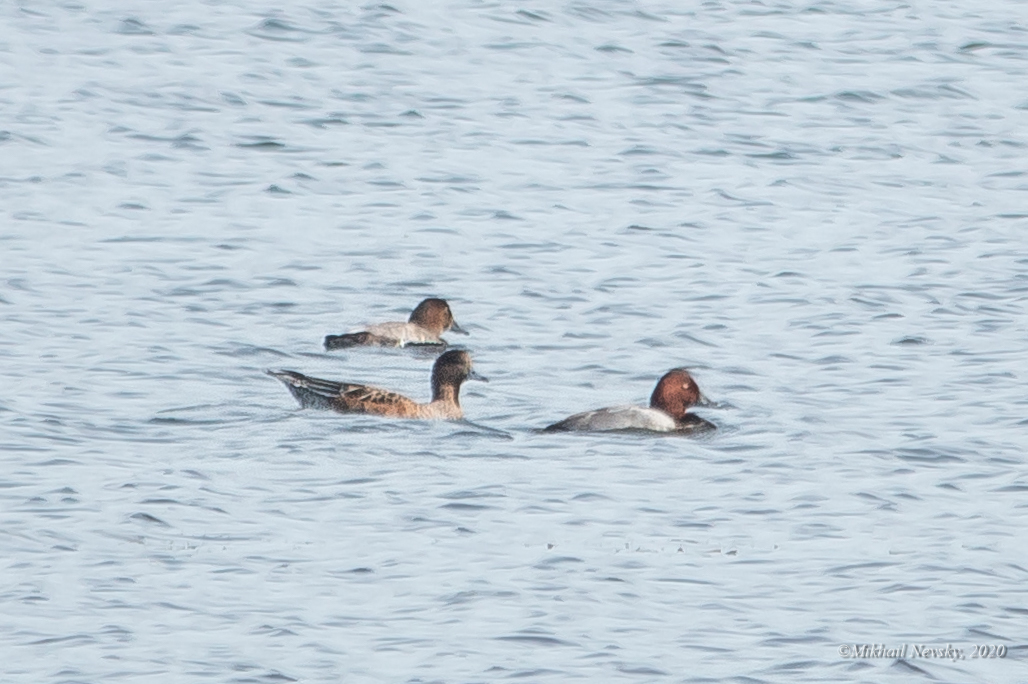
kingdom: Animalia
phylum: Chordata
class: Aves
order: Anseriformes
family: Anatidae
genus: Aythya
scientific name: Aythya
